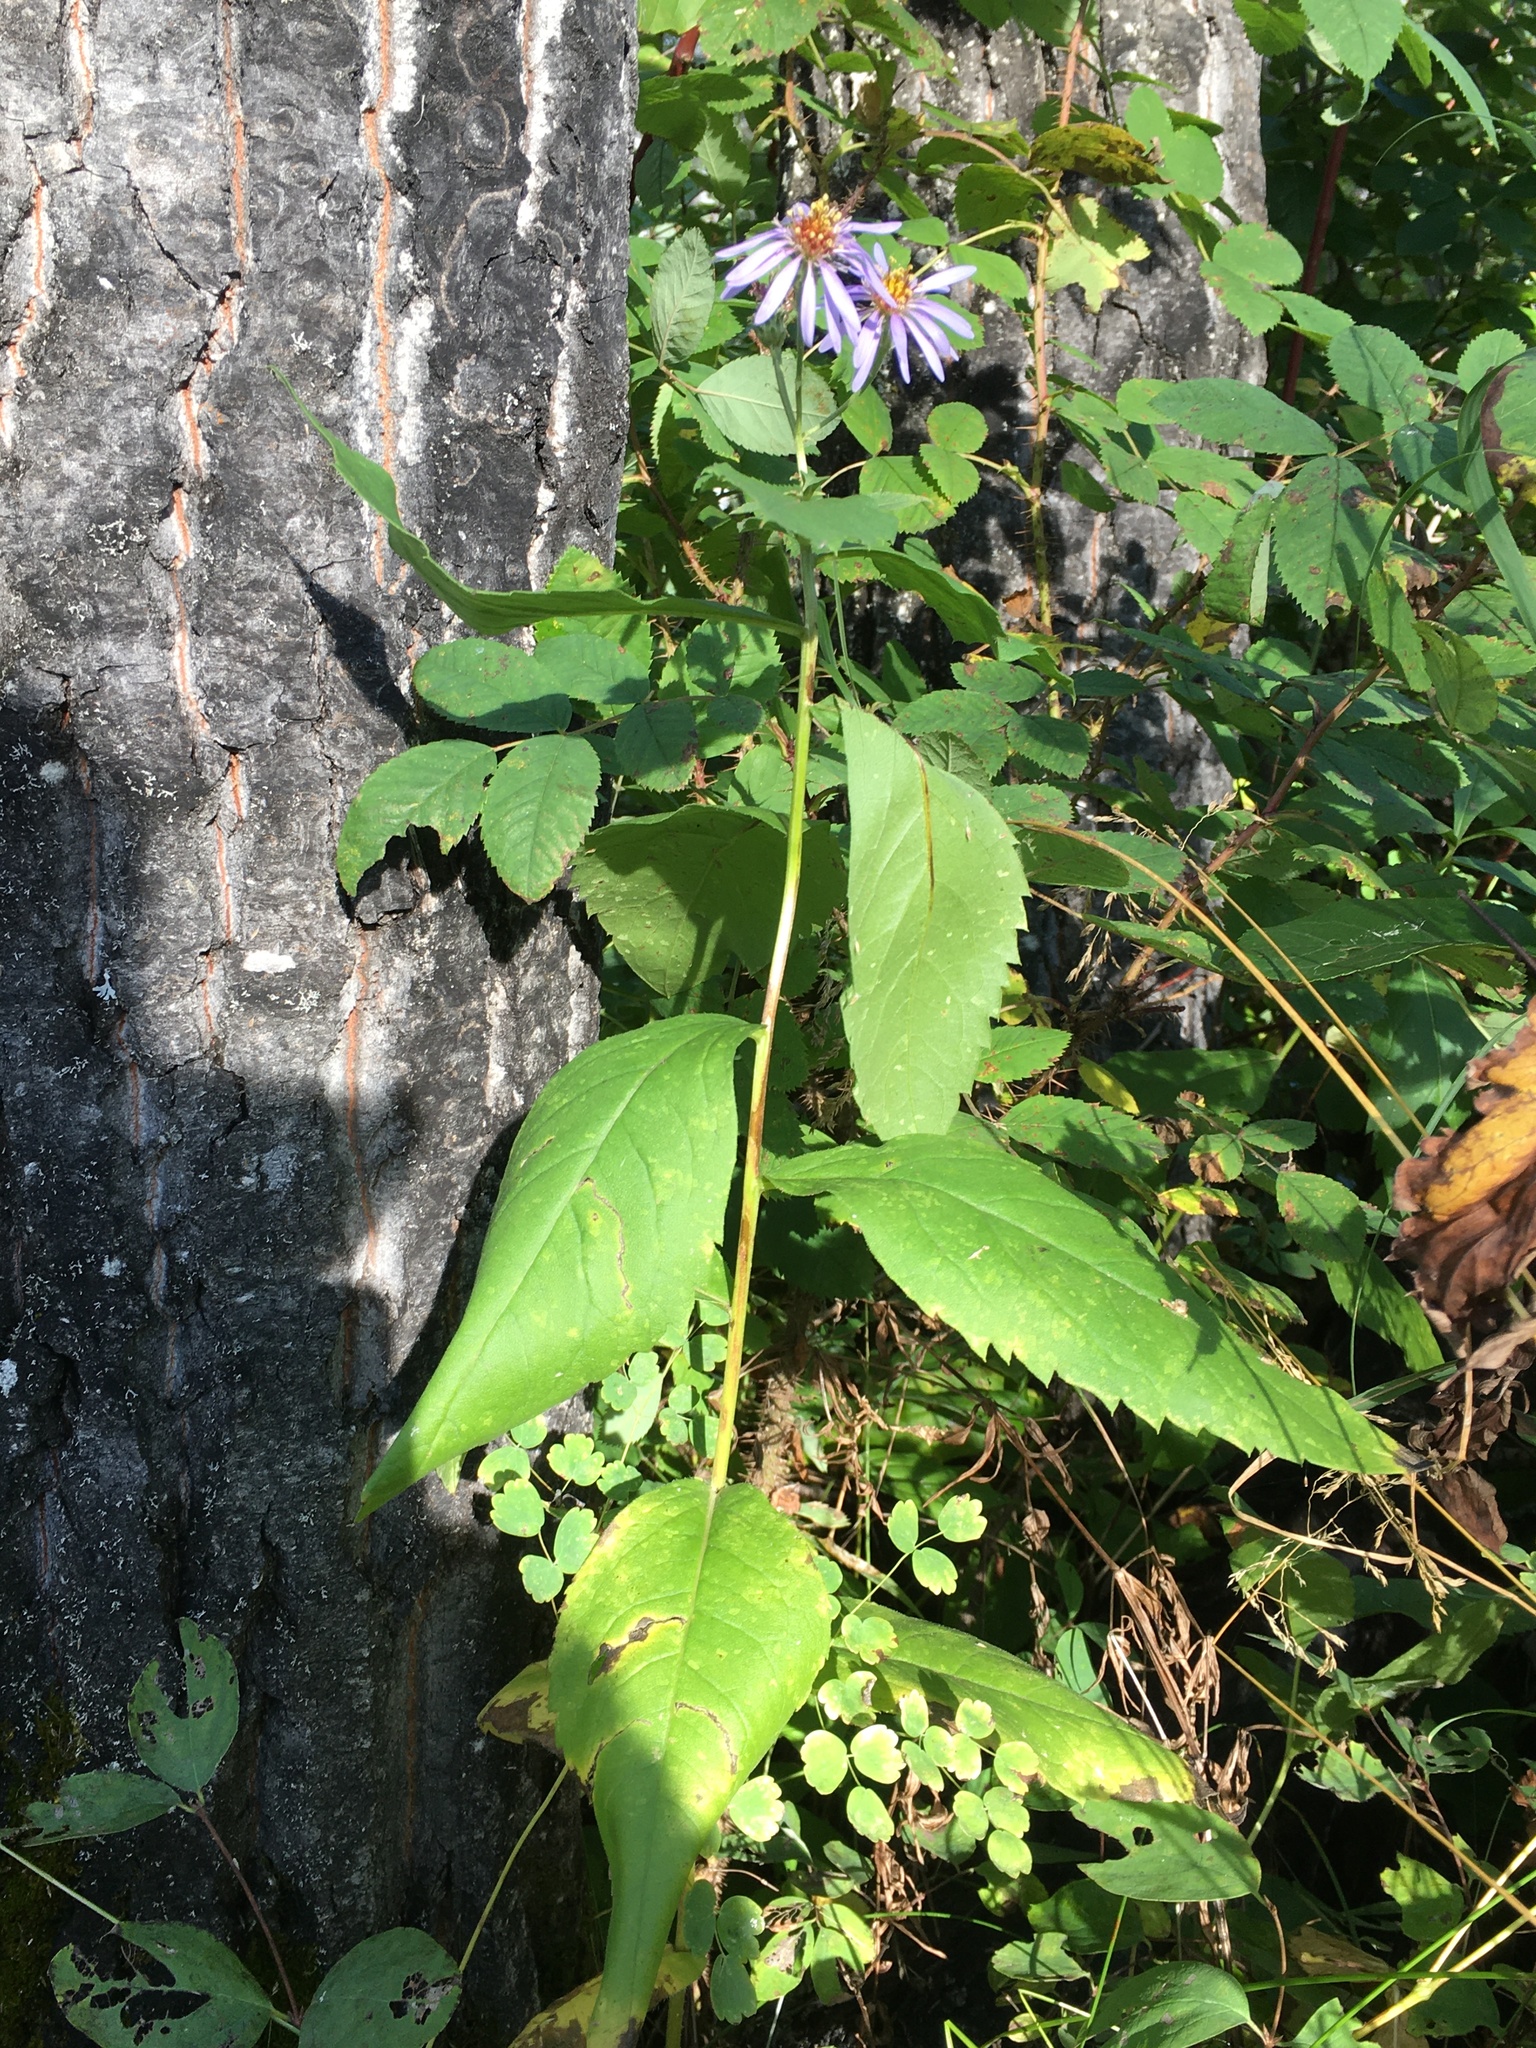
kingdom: Plantae
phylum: Tracheophyta
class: Magnoliopsida
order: Asterales
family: Asteraceae
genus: Eurybia
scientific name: Eurybia conspicua
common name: Showy aster
